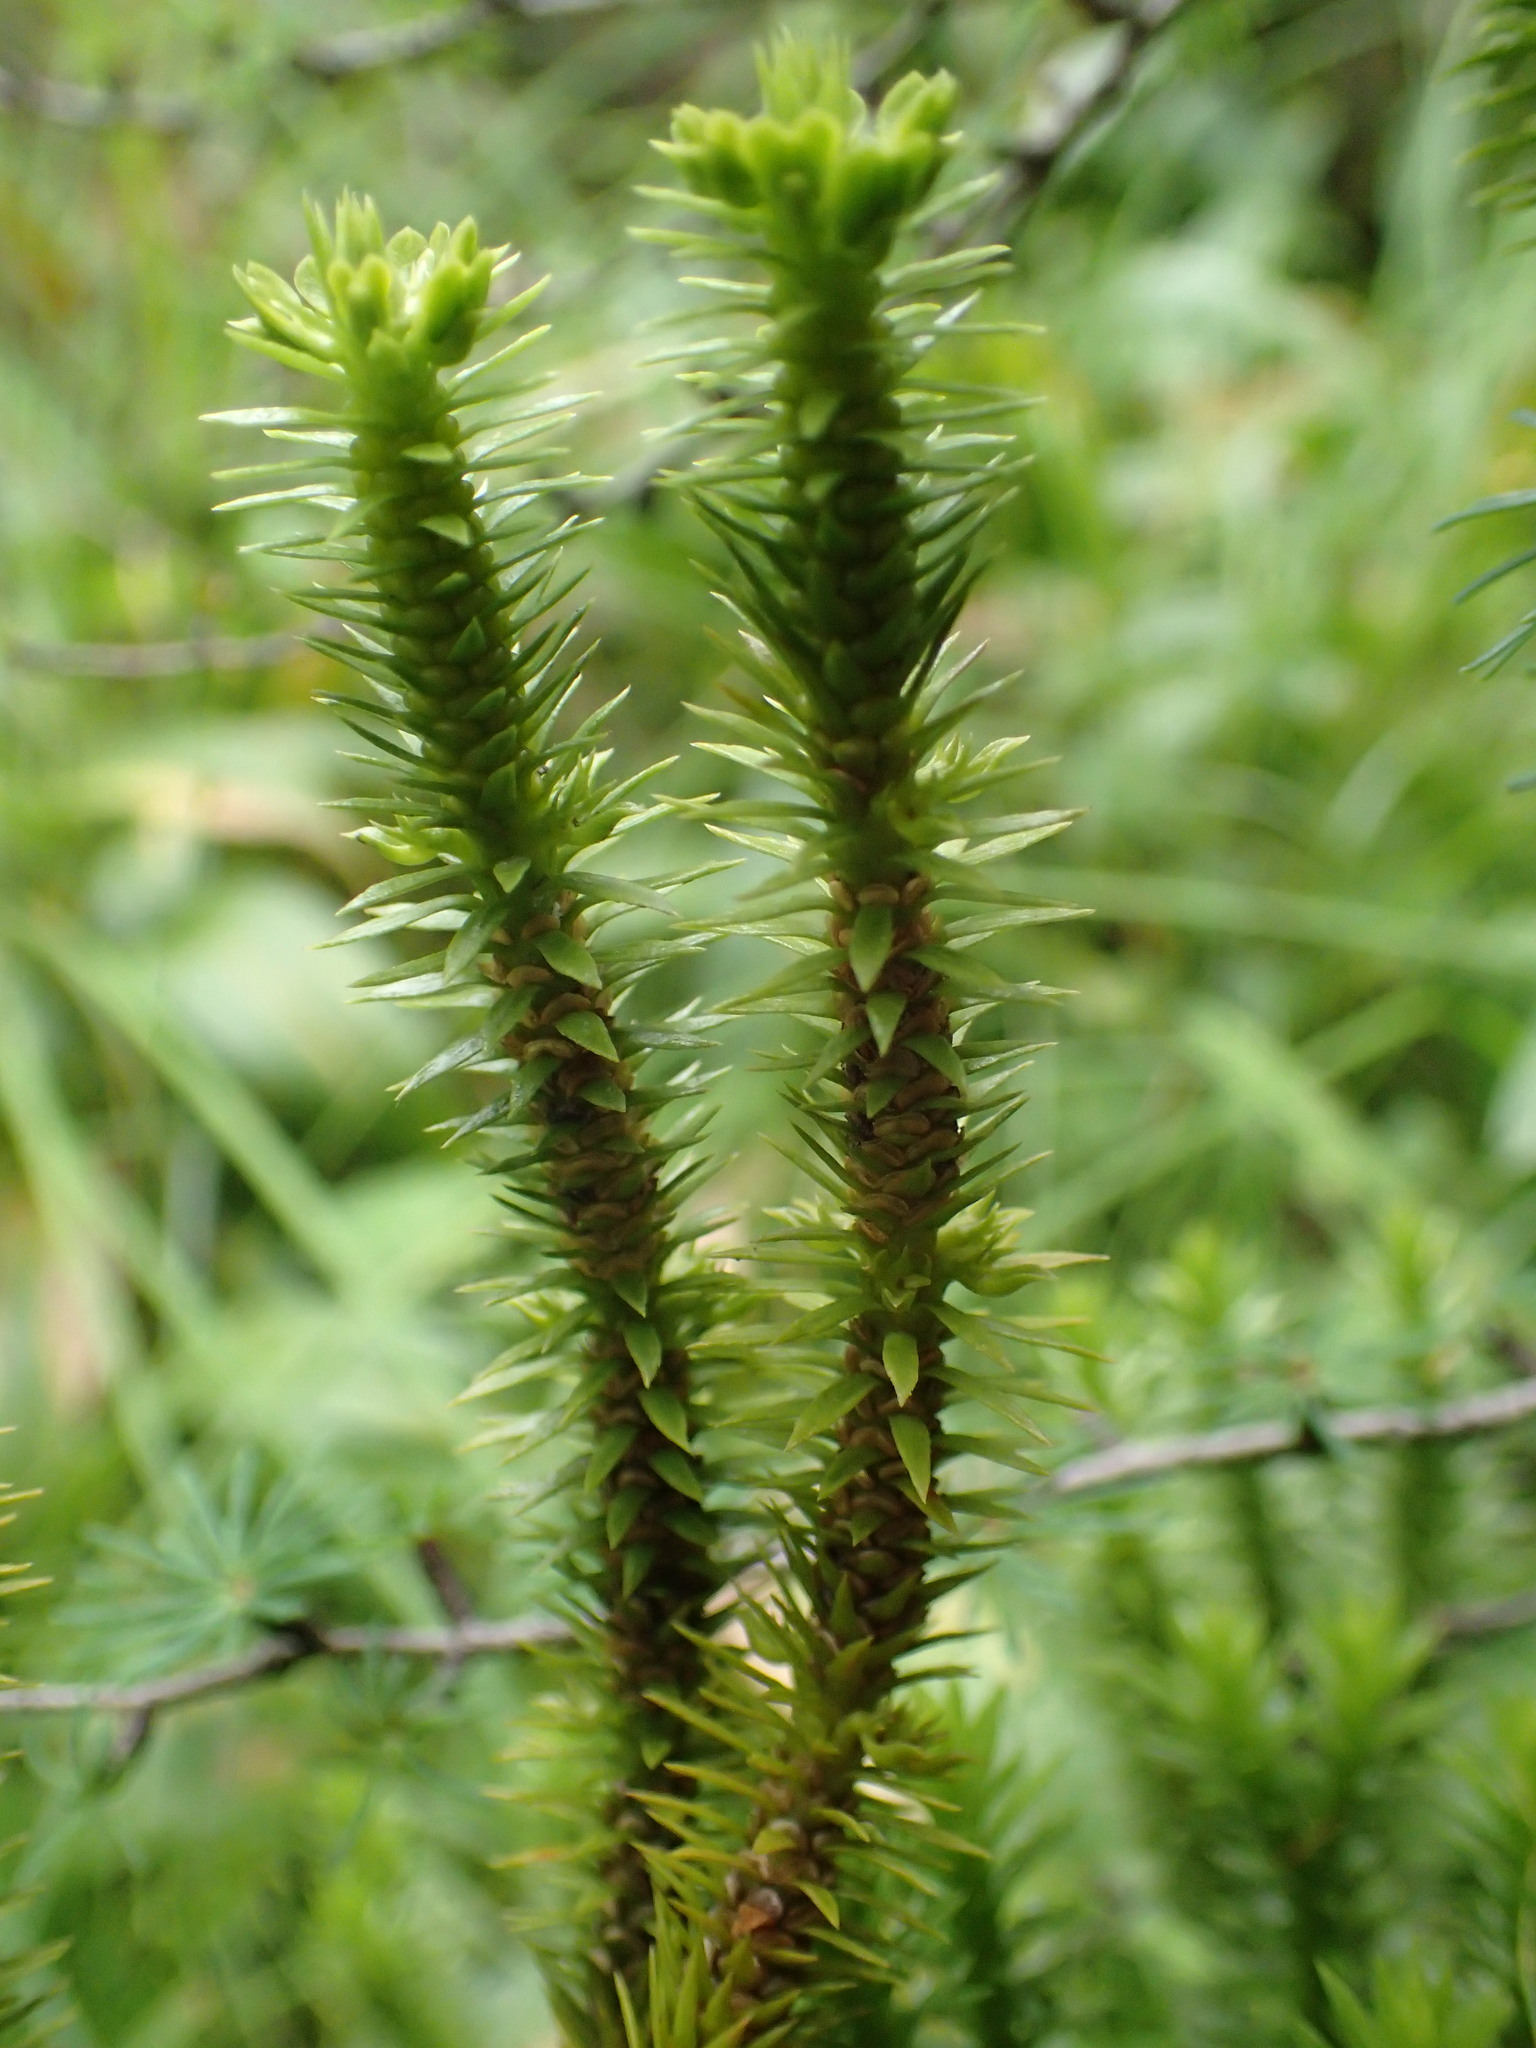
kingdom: Plantae
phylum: Tracheophyta
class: Lycopodiopsida
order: Lycopodiales
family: Lycopodiaceae
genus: Huperzia
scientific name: Huperzia selago
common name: Northern firmoss
